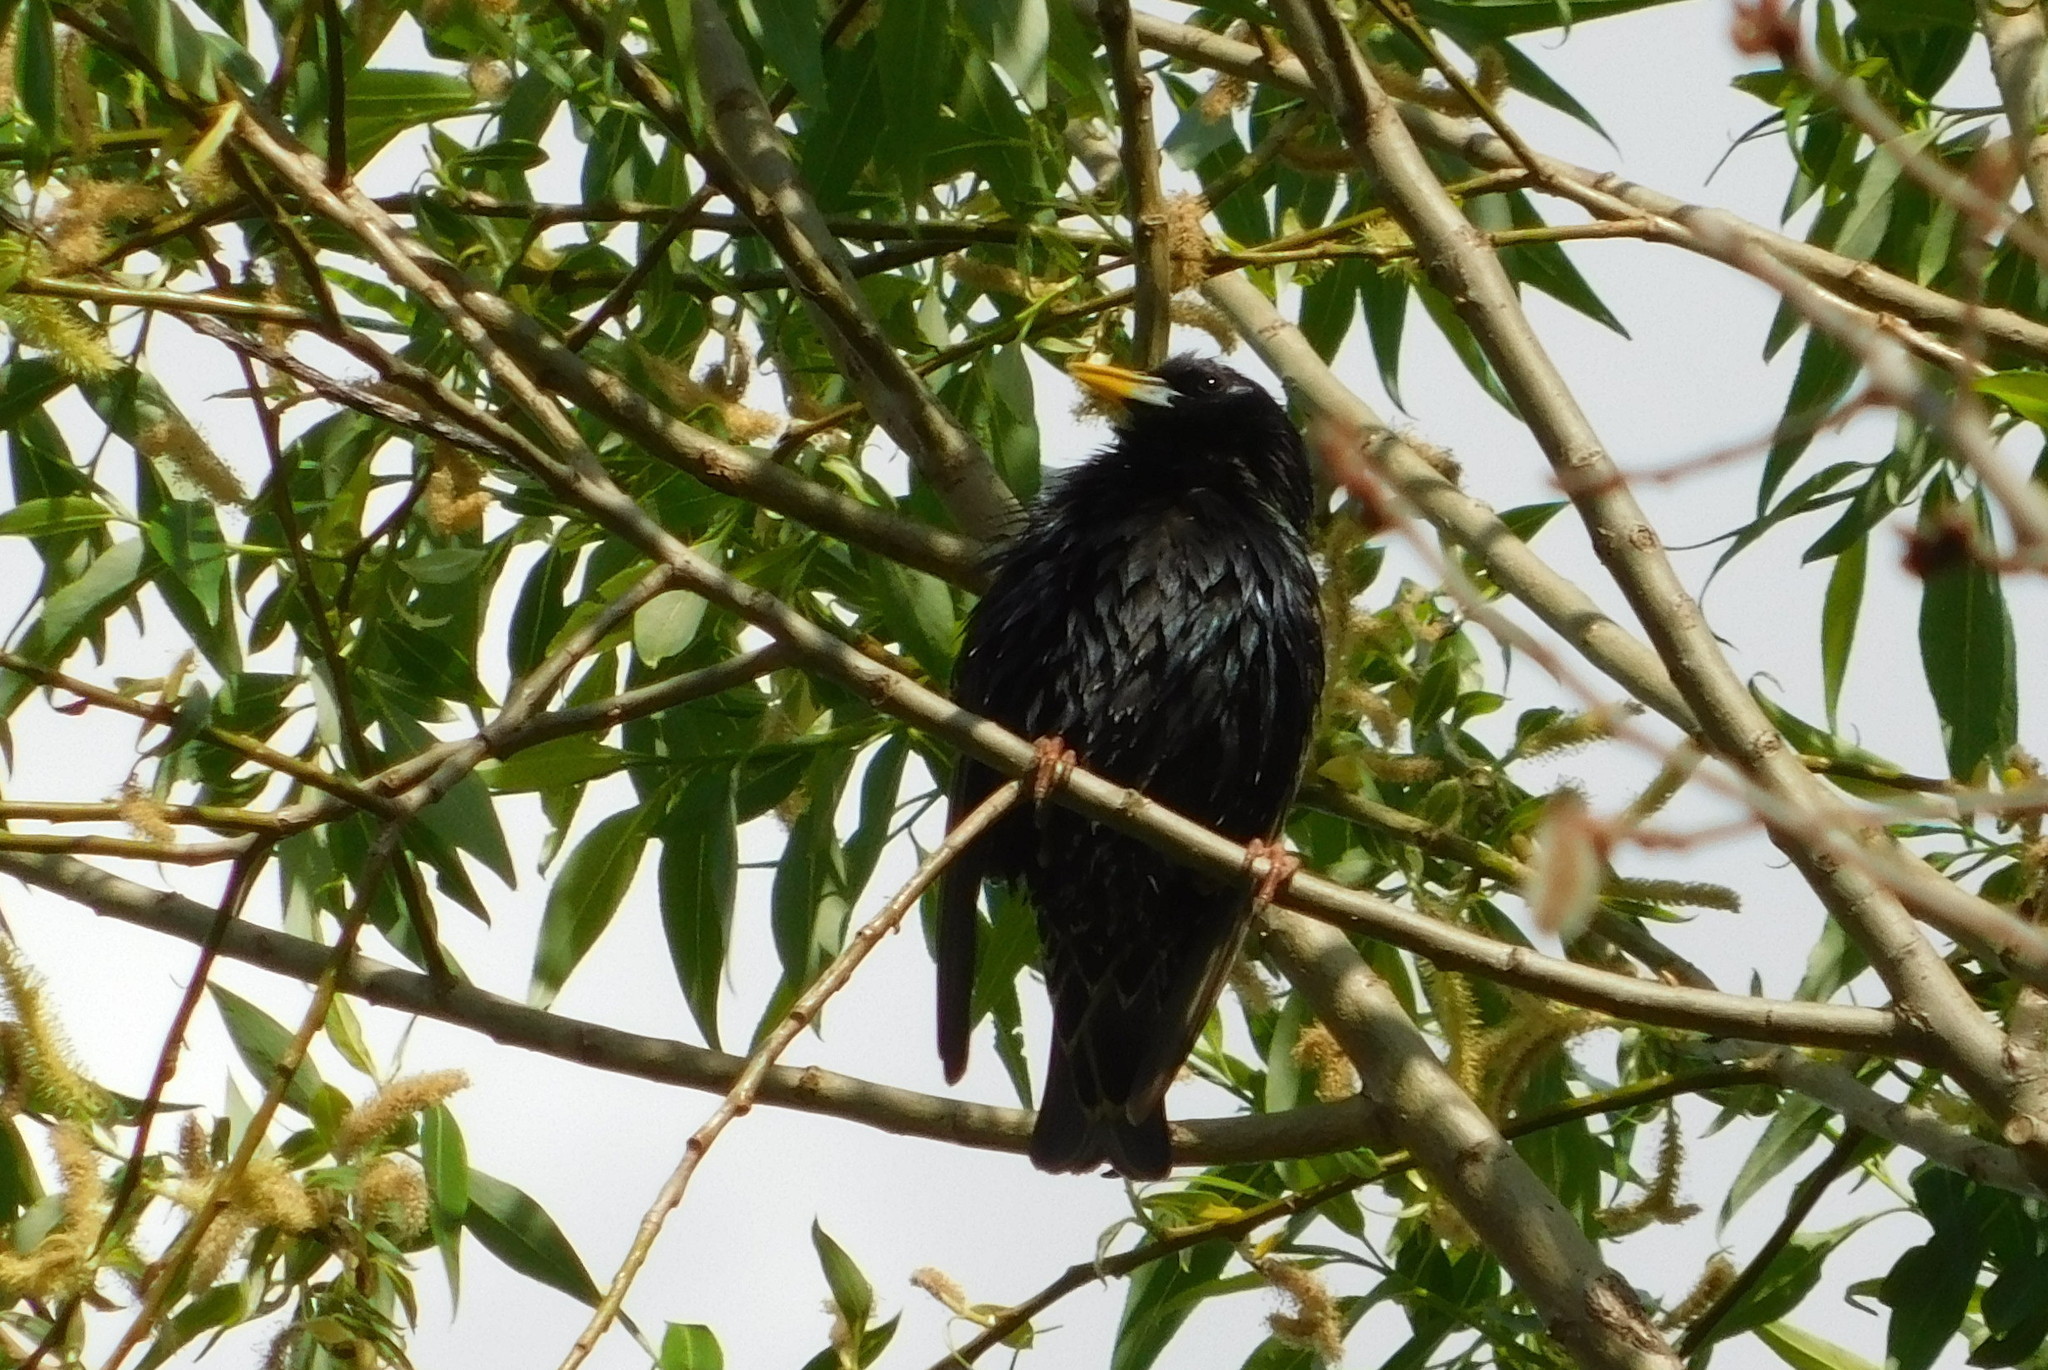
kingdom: Animalia
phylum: Chordata
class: Aves
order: Passeriformes
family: Sturnidae
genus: Sturnus
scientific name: Sturnus vulgaris
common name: Common starling
